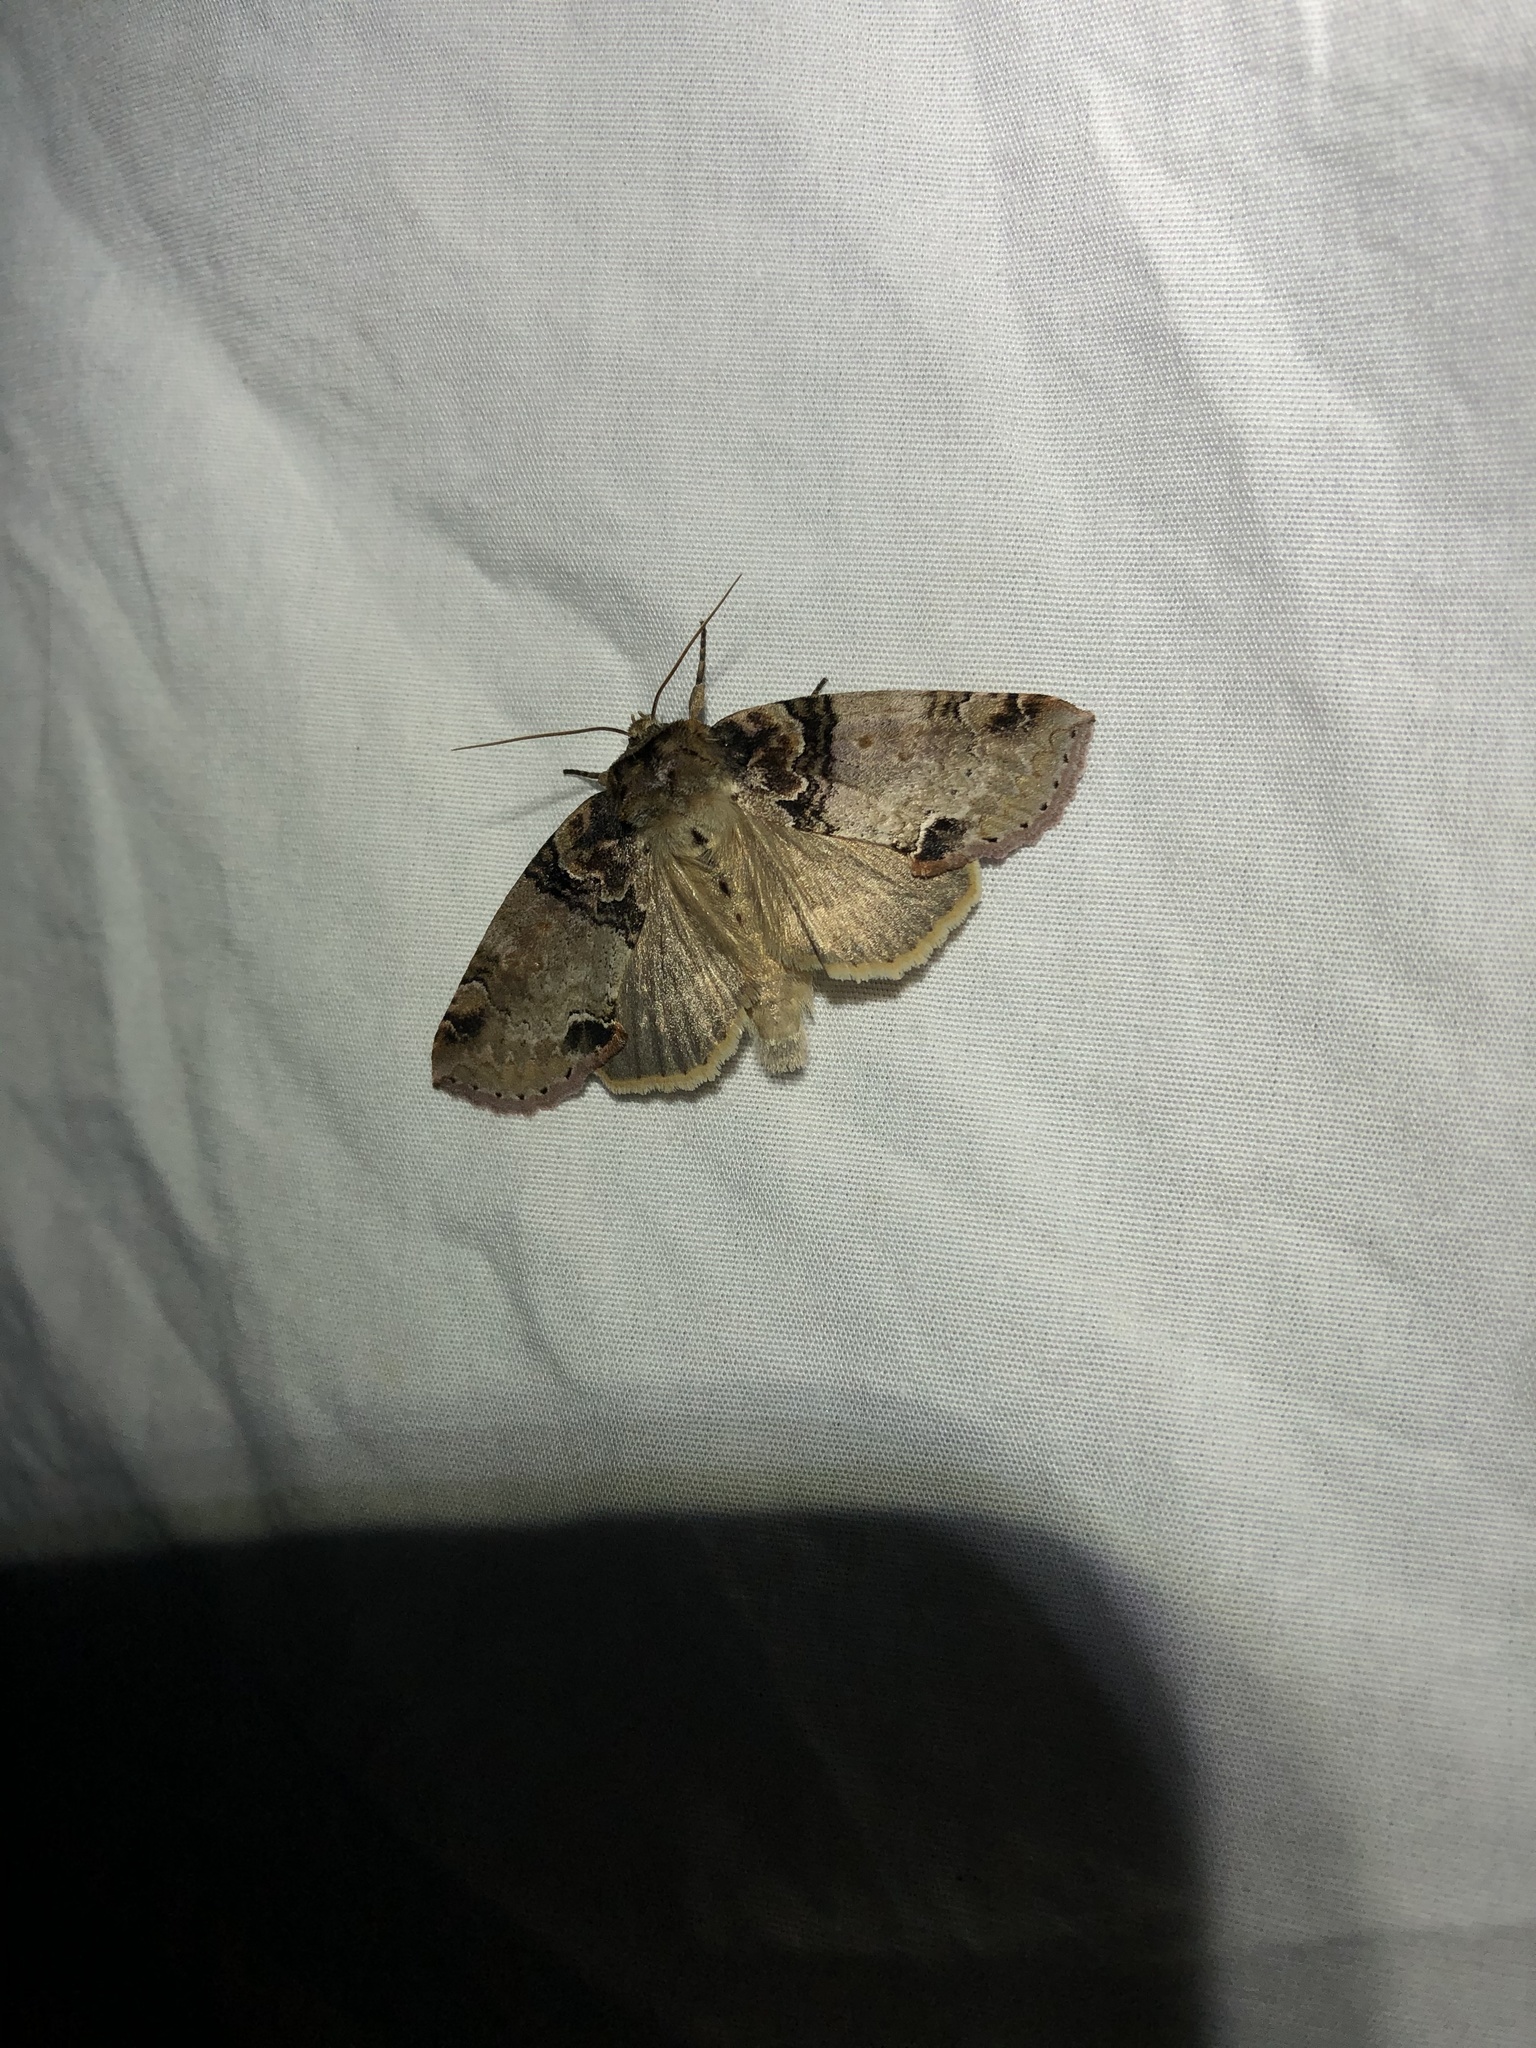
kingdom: Animalia
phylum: Arthropoda
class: Insecta
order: Lepidoptera
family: Drepanidae
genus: Pseudothyatira
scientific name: Pseudothyatira cymatophoroides
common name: Tufted thyatirid moth
